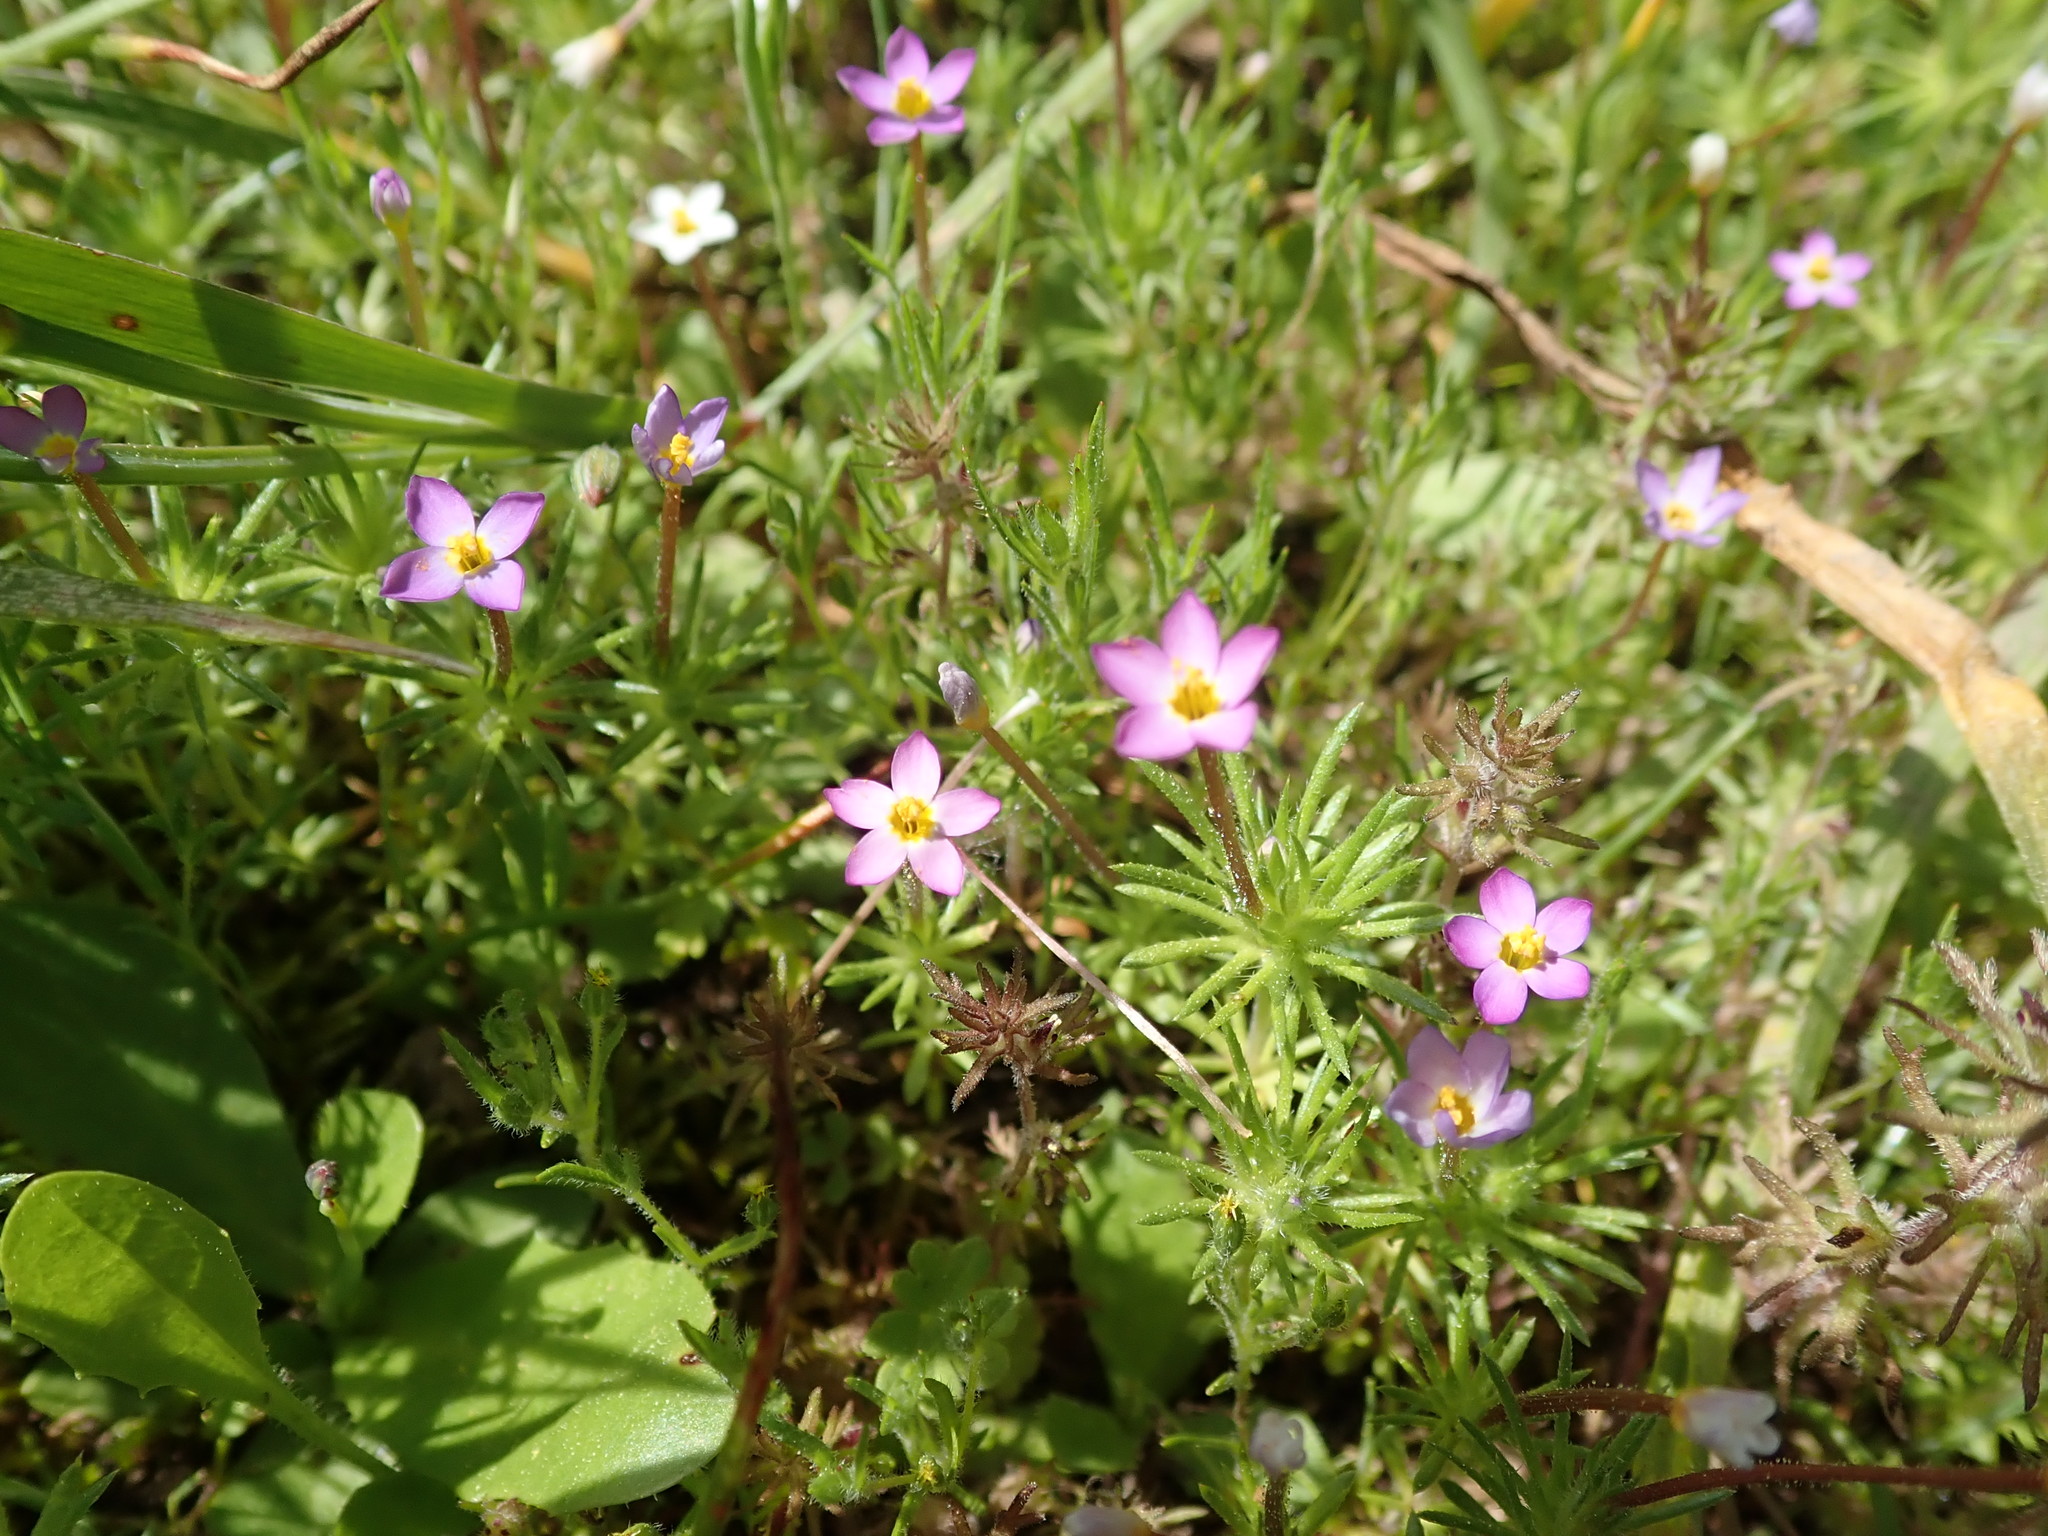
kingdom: Plantae
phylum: Tracheophyta
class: Magnoliopsida
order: Ericales
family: Polemoniaceae
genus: Leptosiphon
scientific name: Leptosiphon bicolor
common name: True babystars
